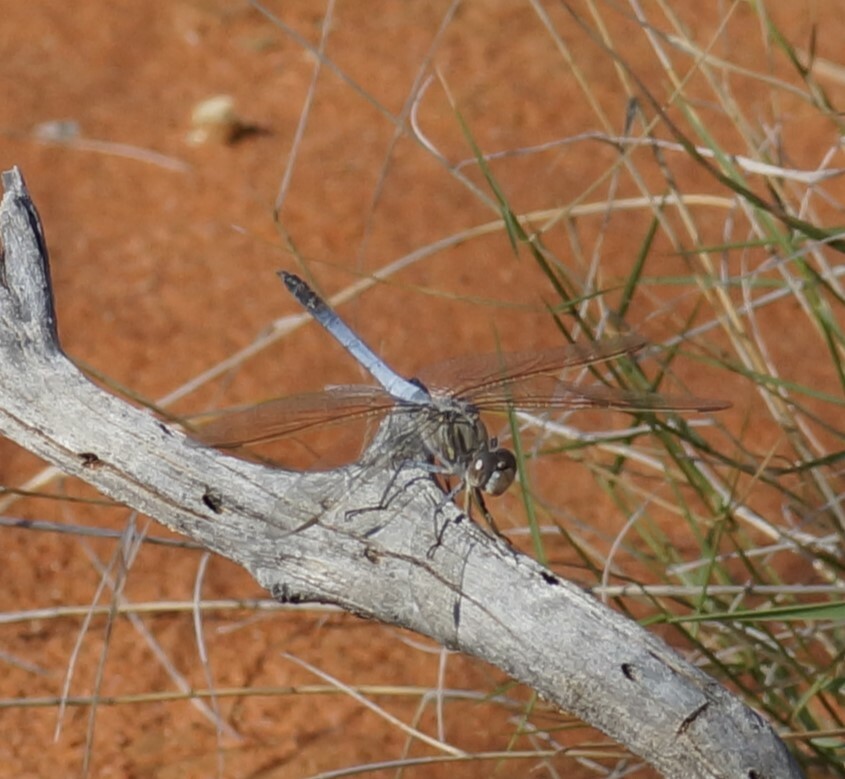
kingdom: Animalia
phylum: Arthropoda
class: Insecta
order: Odonata
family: Libellulidae
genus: Orthetrum
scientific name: Orthetrum caledonicum
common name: Blue skimmer
